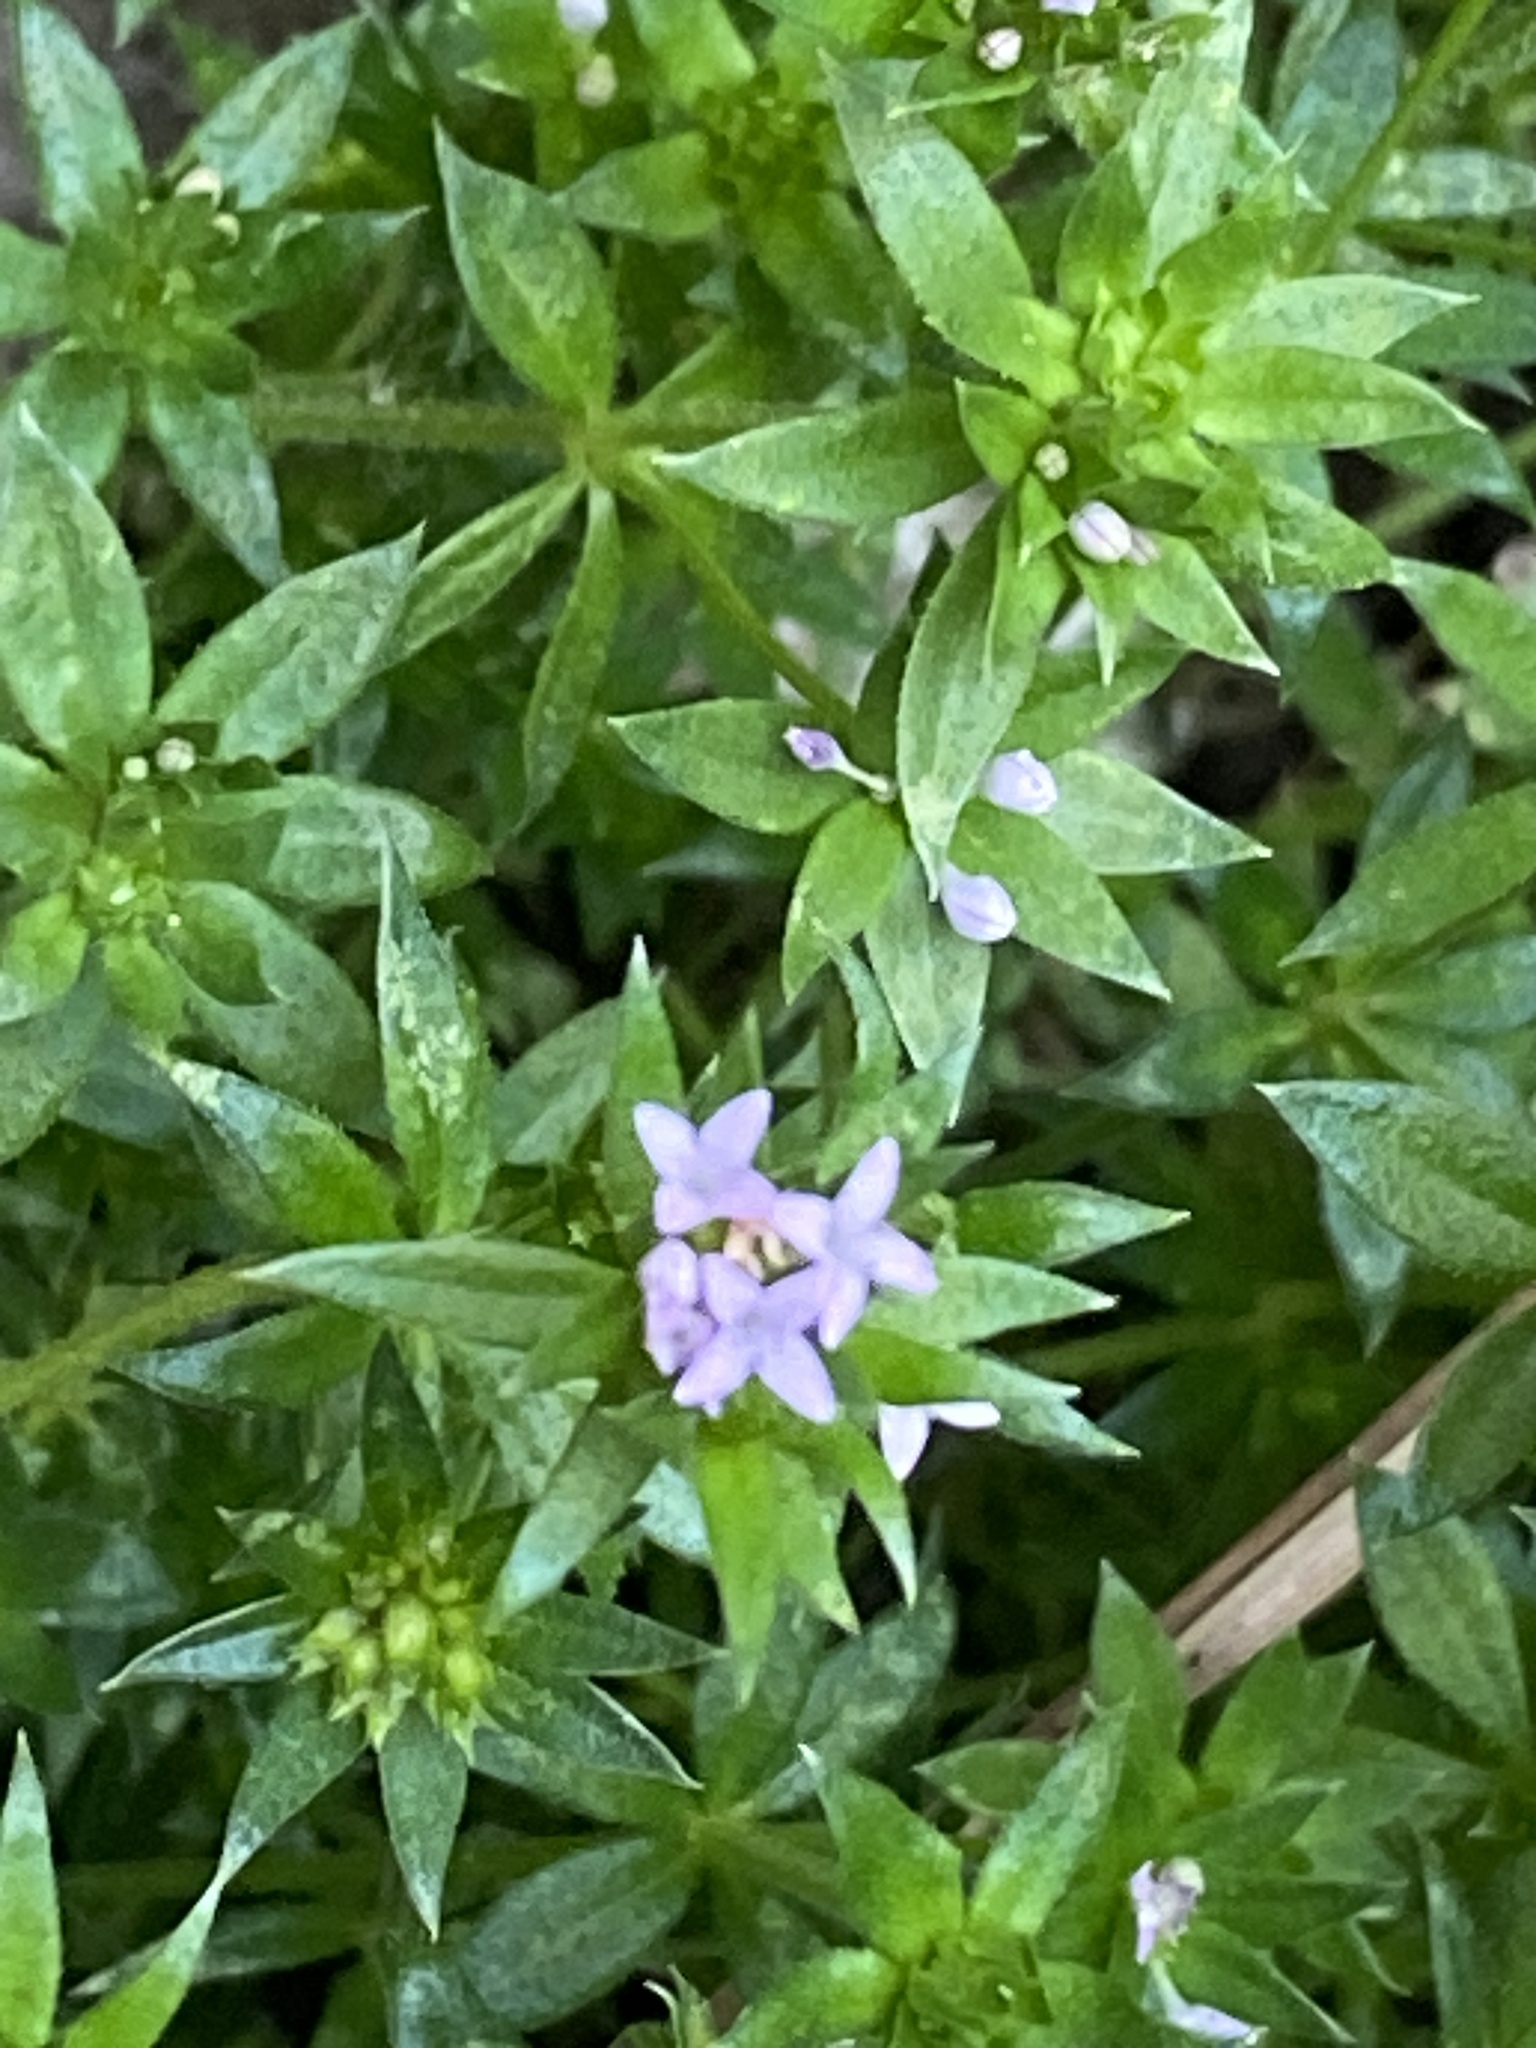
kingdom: Plantae
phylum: Tracheophyta
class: Magnoliopsida
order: Gentianales
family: Rubiaceae
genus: Sherardia
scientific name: Sherardia arvensis
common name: Field madder
